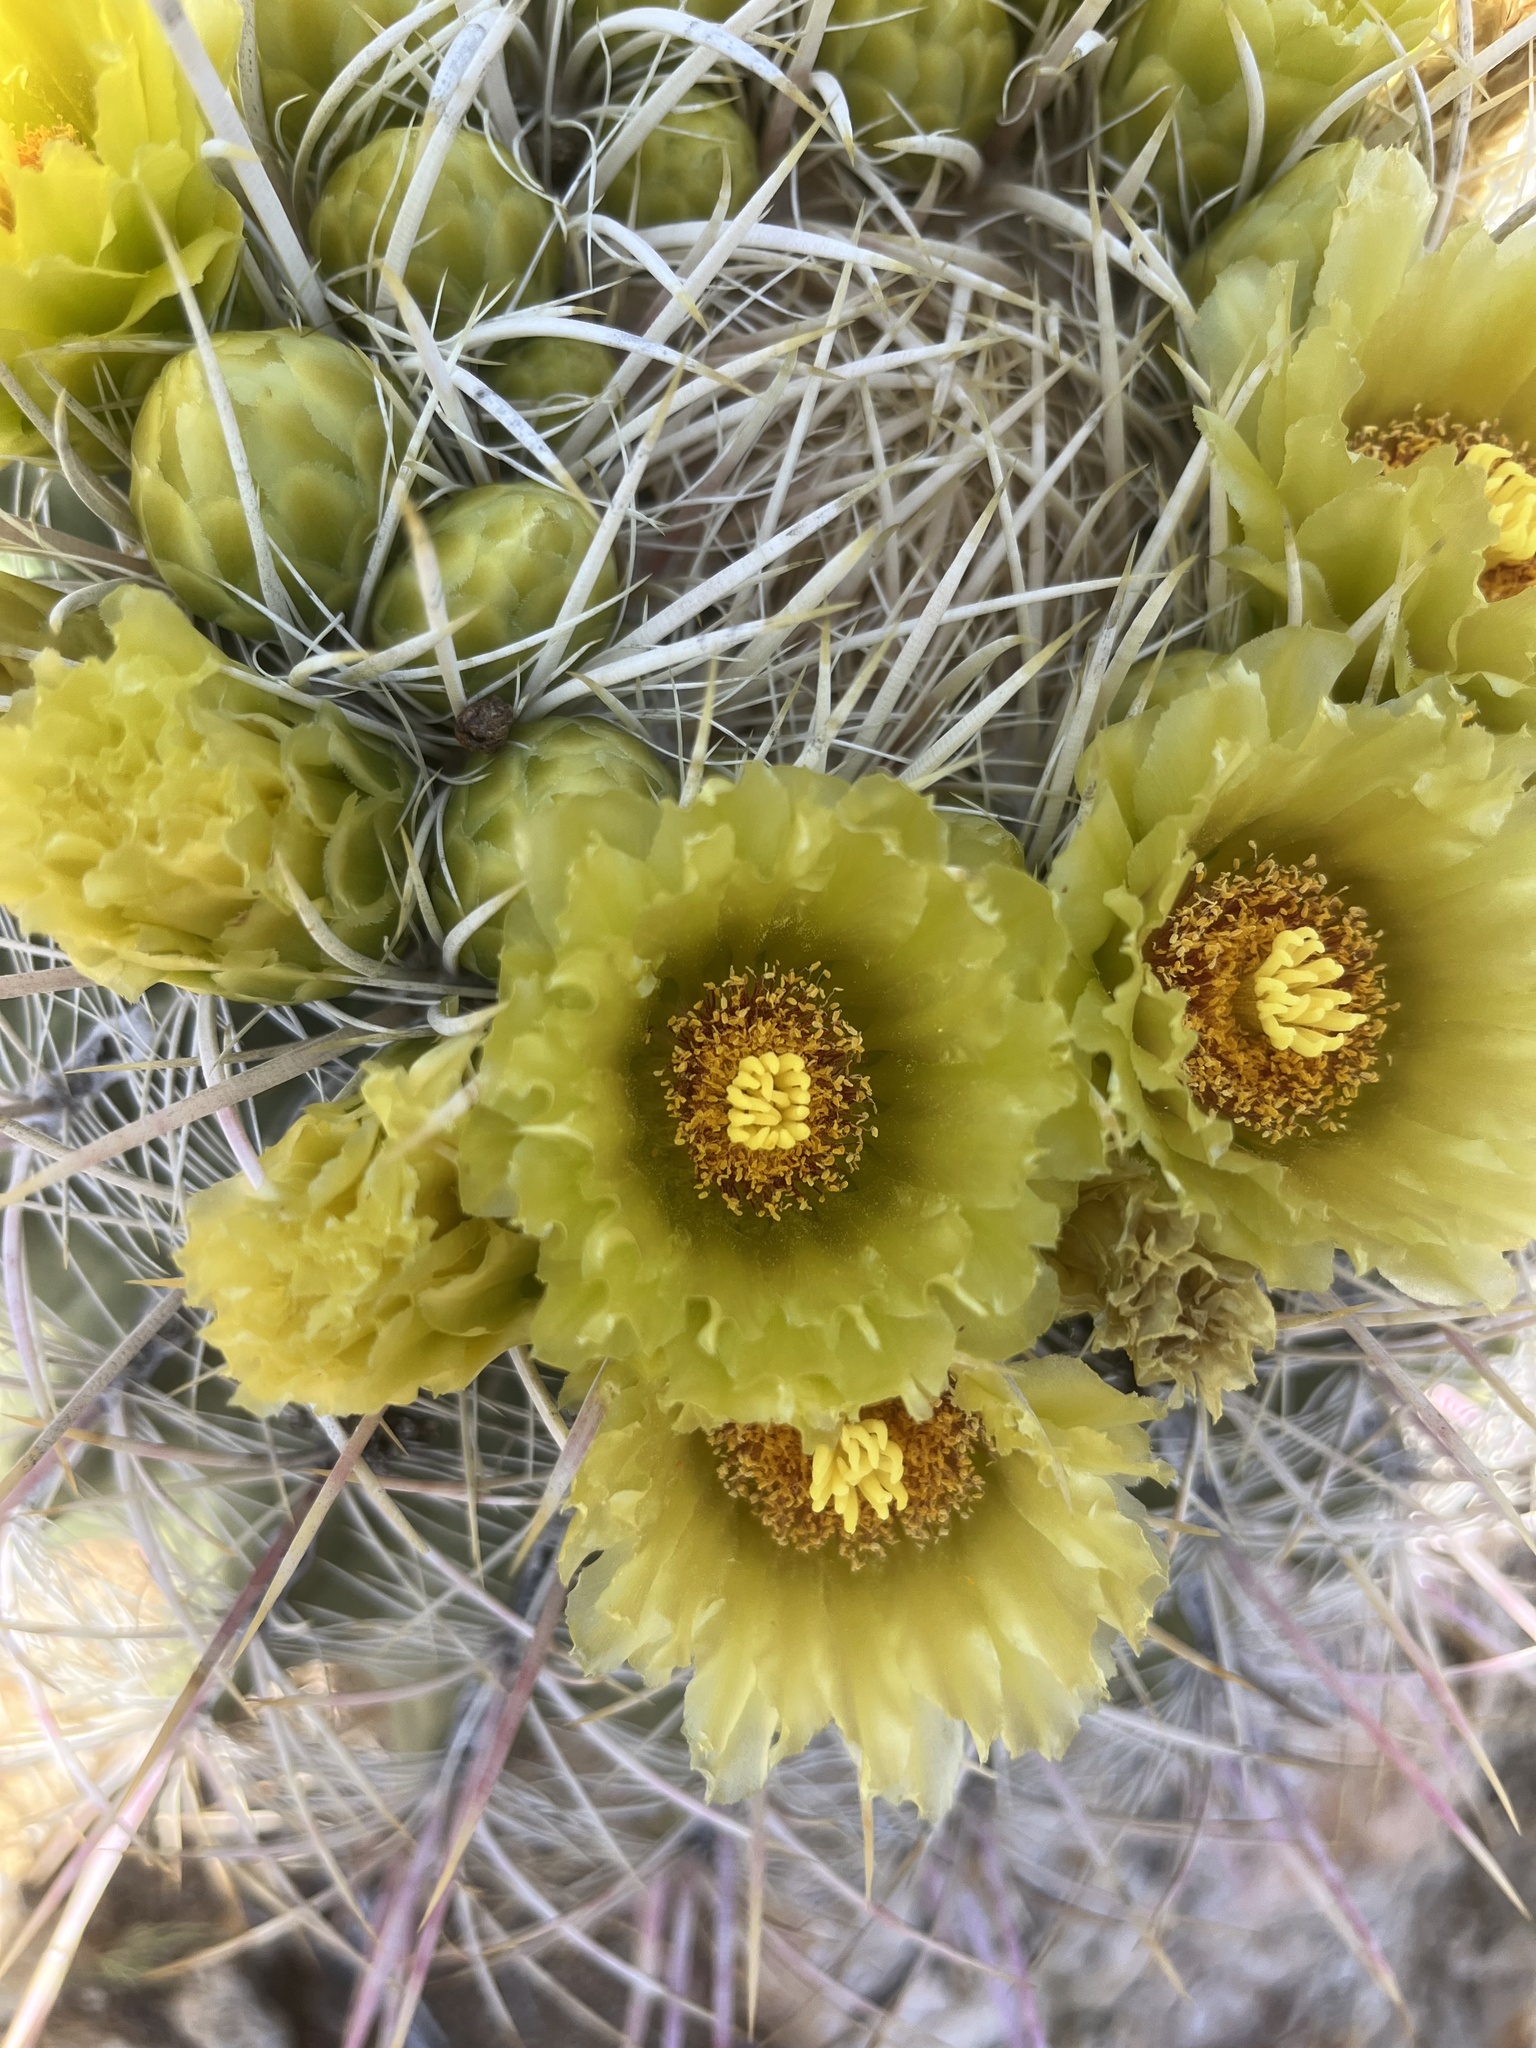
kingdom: Plantae
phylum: Tracheophyta
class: Magnoliopsida
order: Caryophyllales
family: Cactaceae
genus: Ferocactus
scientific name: Ferocactus cylindraceus
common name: California barrel cactus
